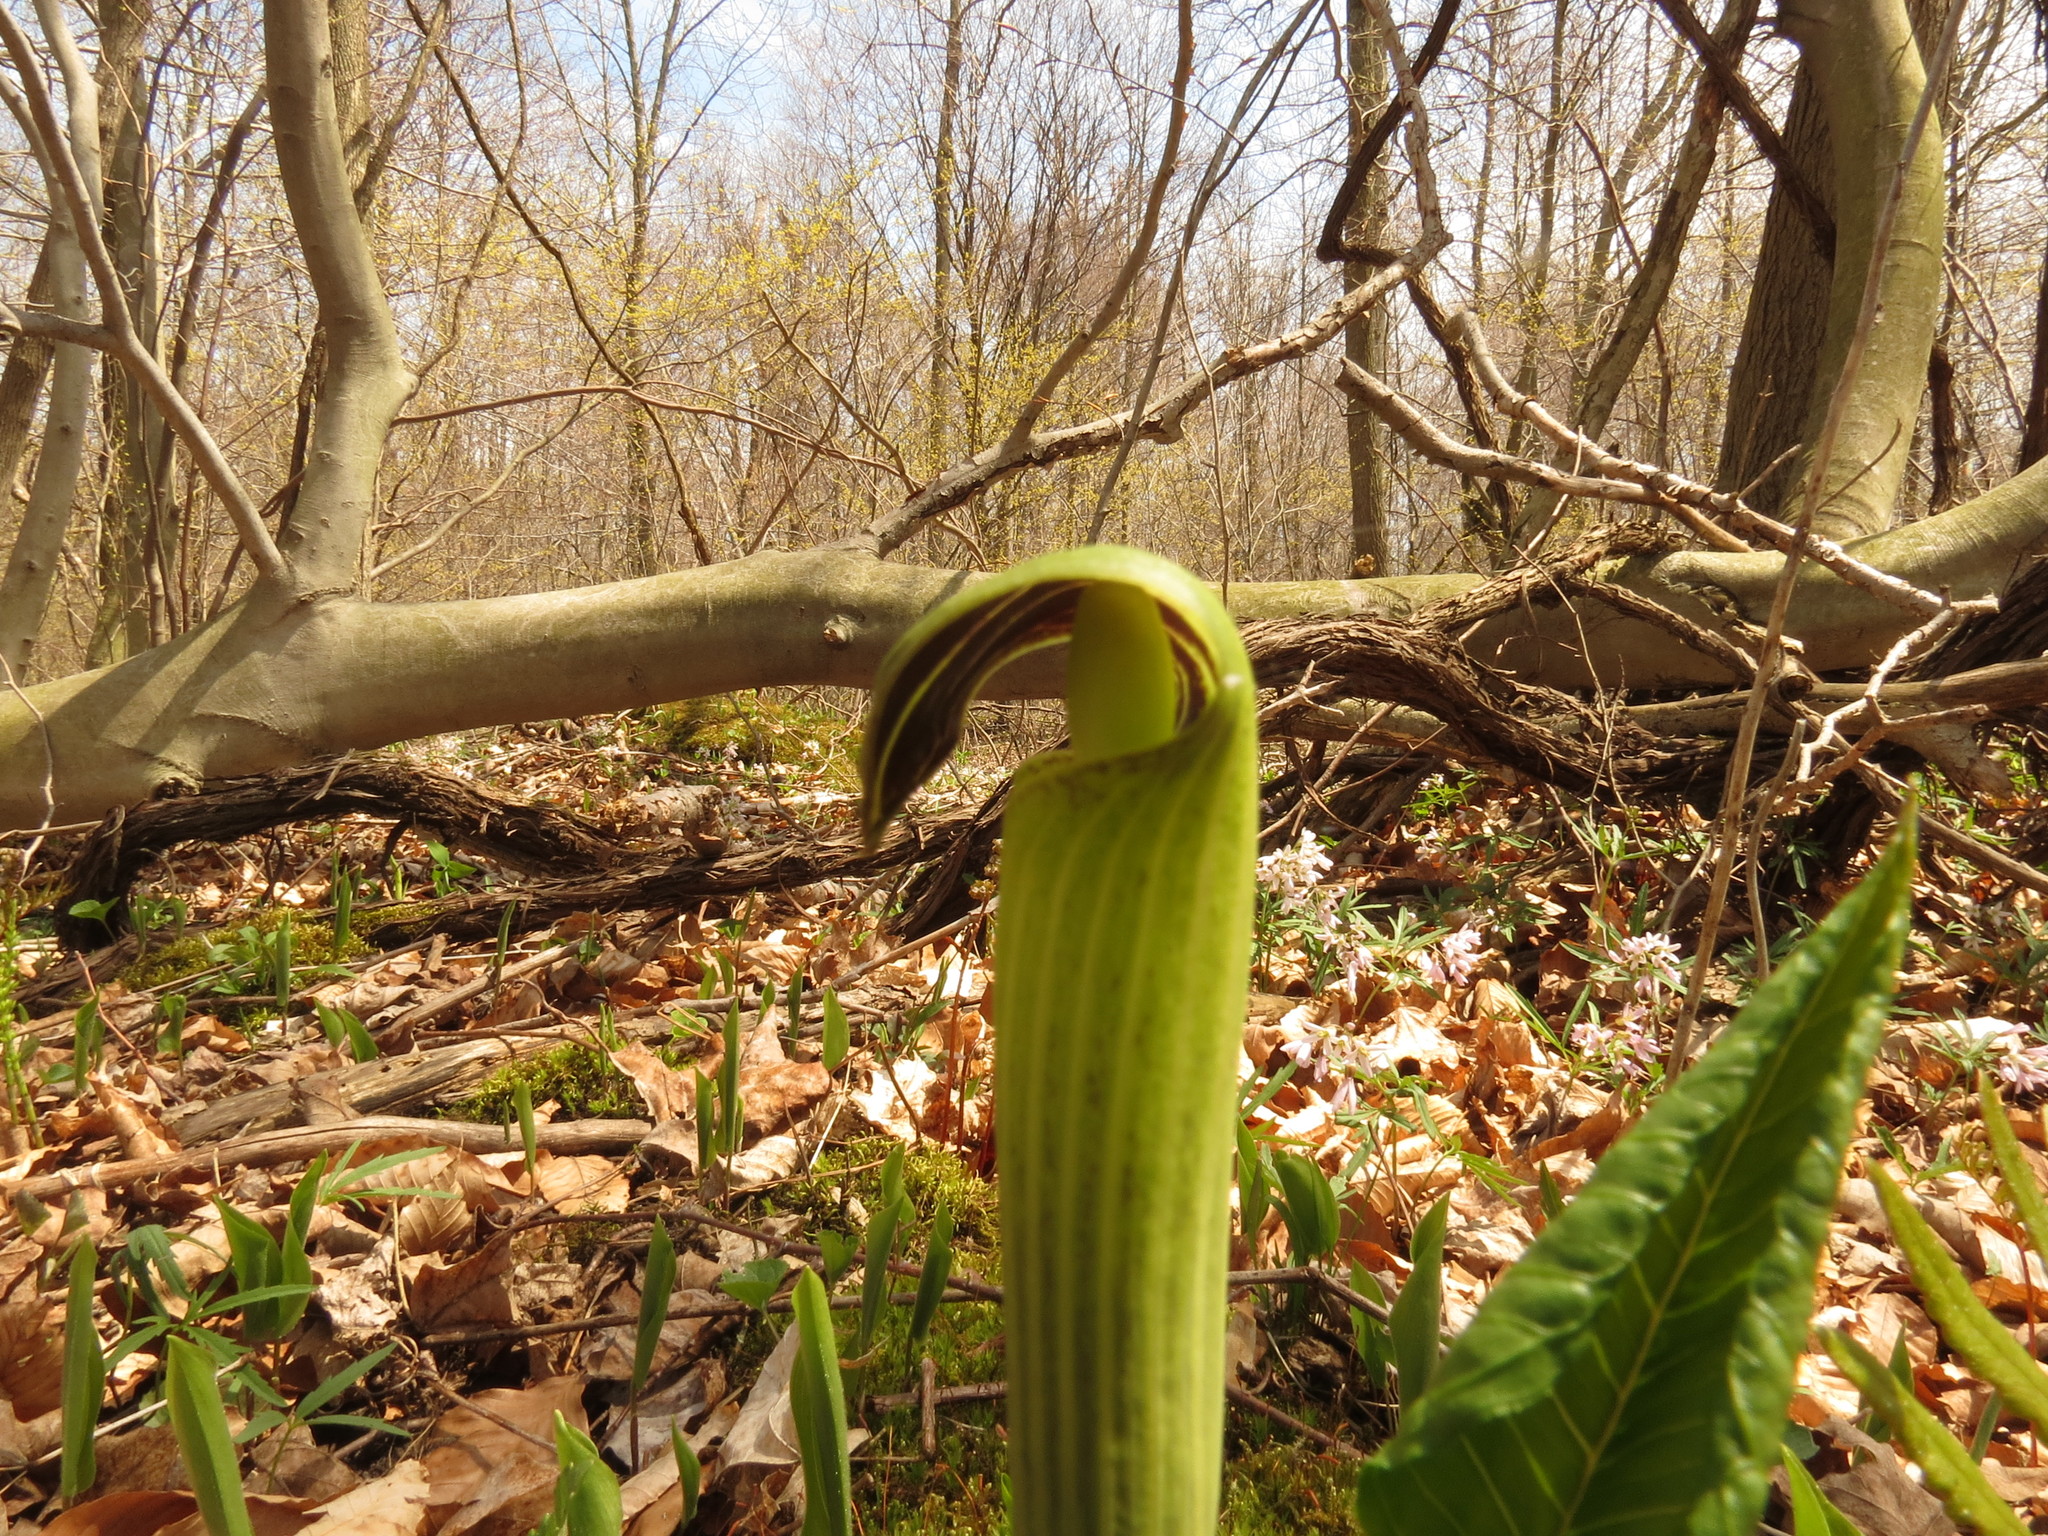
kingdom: Plantae
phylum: Tracheophyta
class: Liliopsida
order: Alismatales
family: Araceae
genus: Arisaema
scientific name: Arisaema triphyllum
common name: Jack-in-the-pulpit
